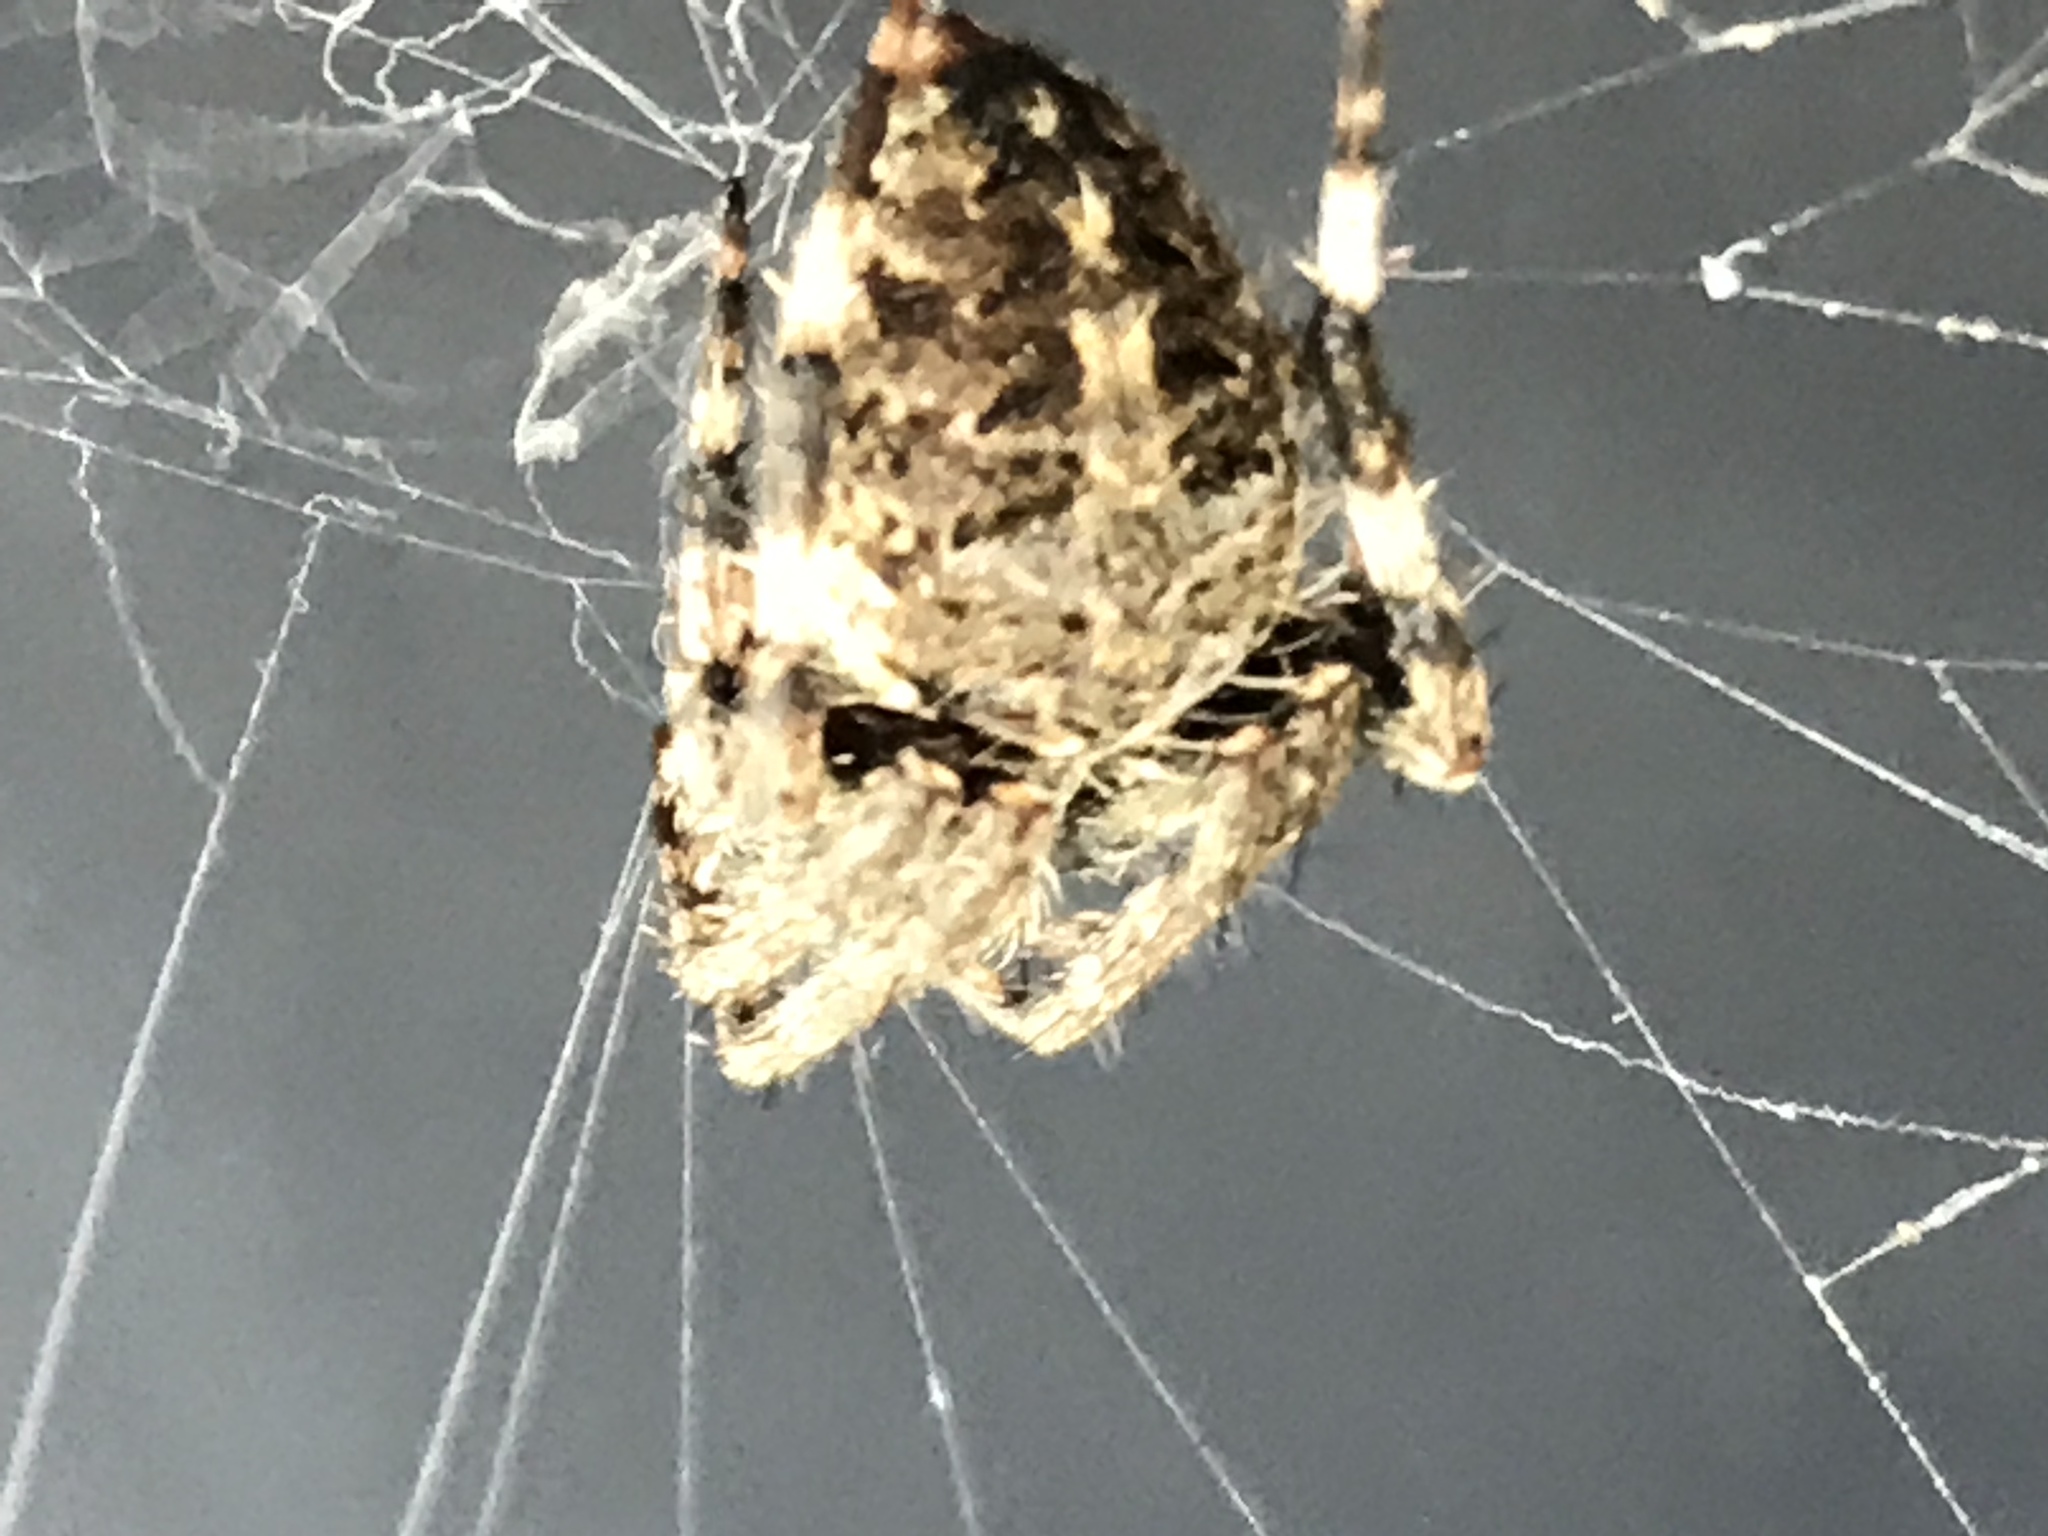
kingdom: Animalia
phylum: Arthropoda
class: Arachnida
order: Araneae
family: Araneidae
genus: Neoscona
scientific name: Neoscona crucifera
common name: Spotted orbweaver
